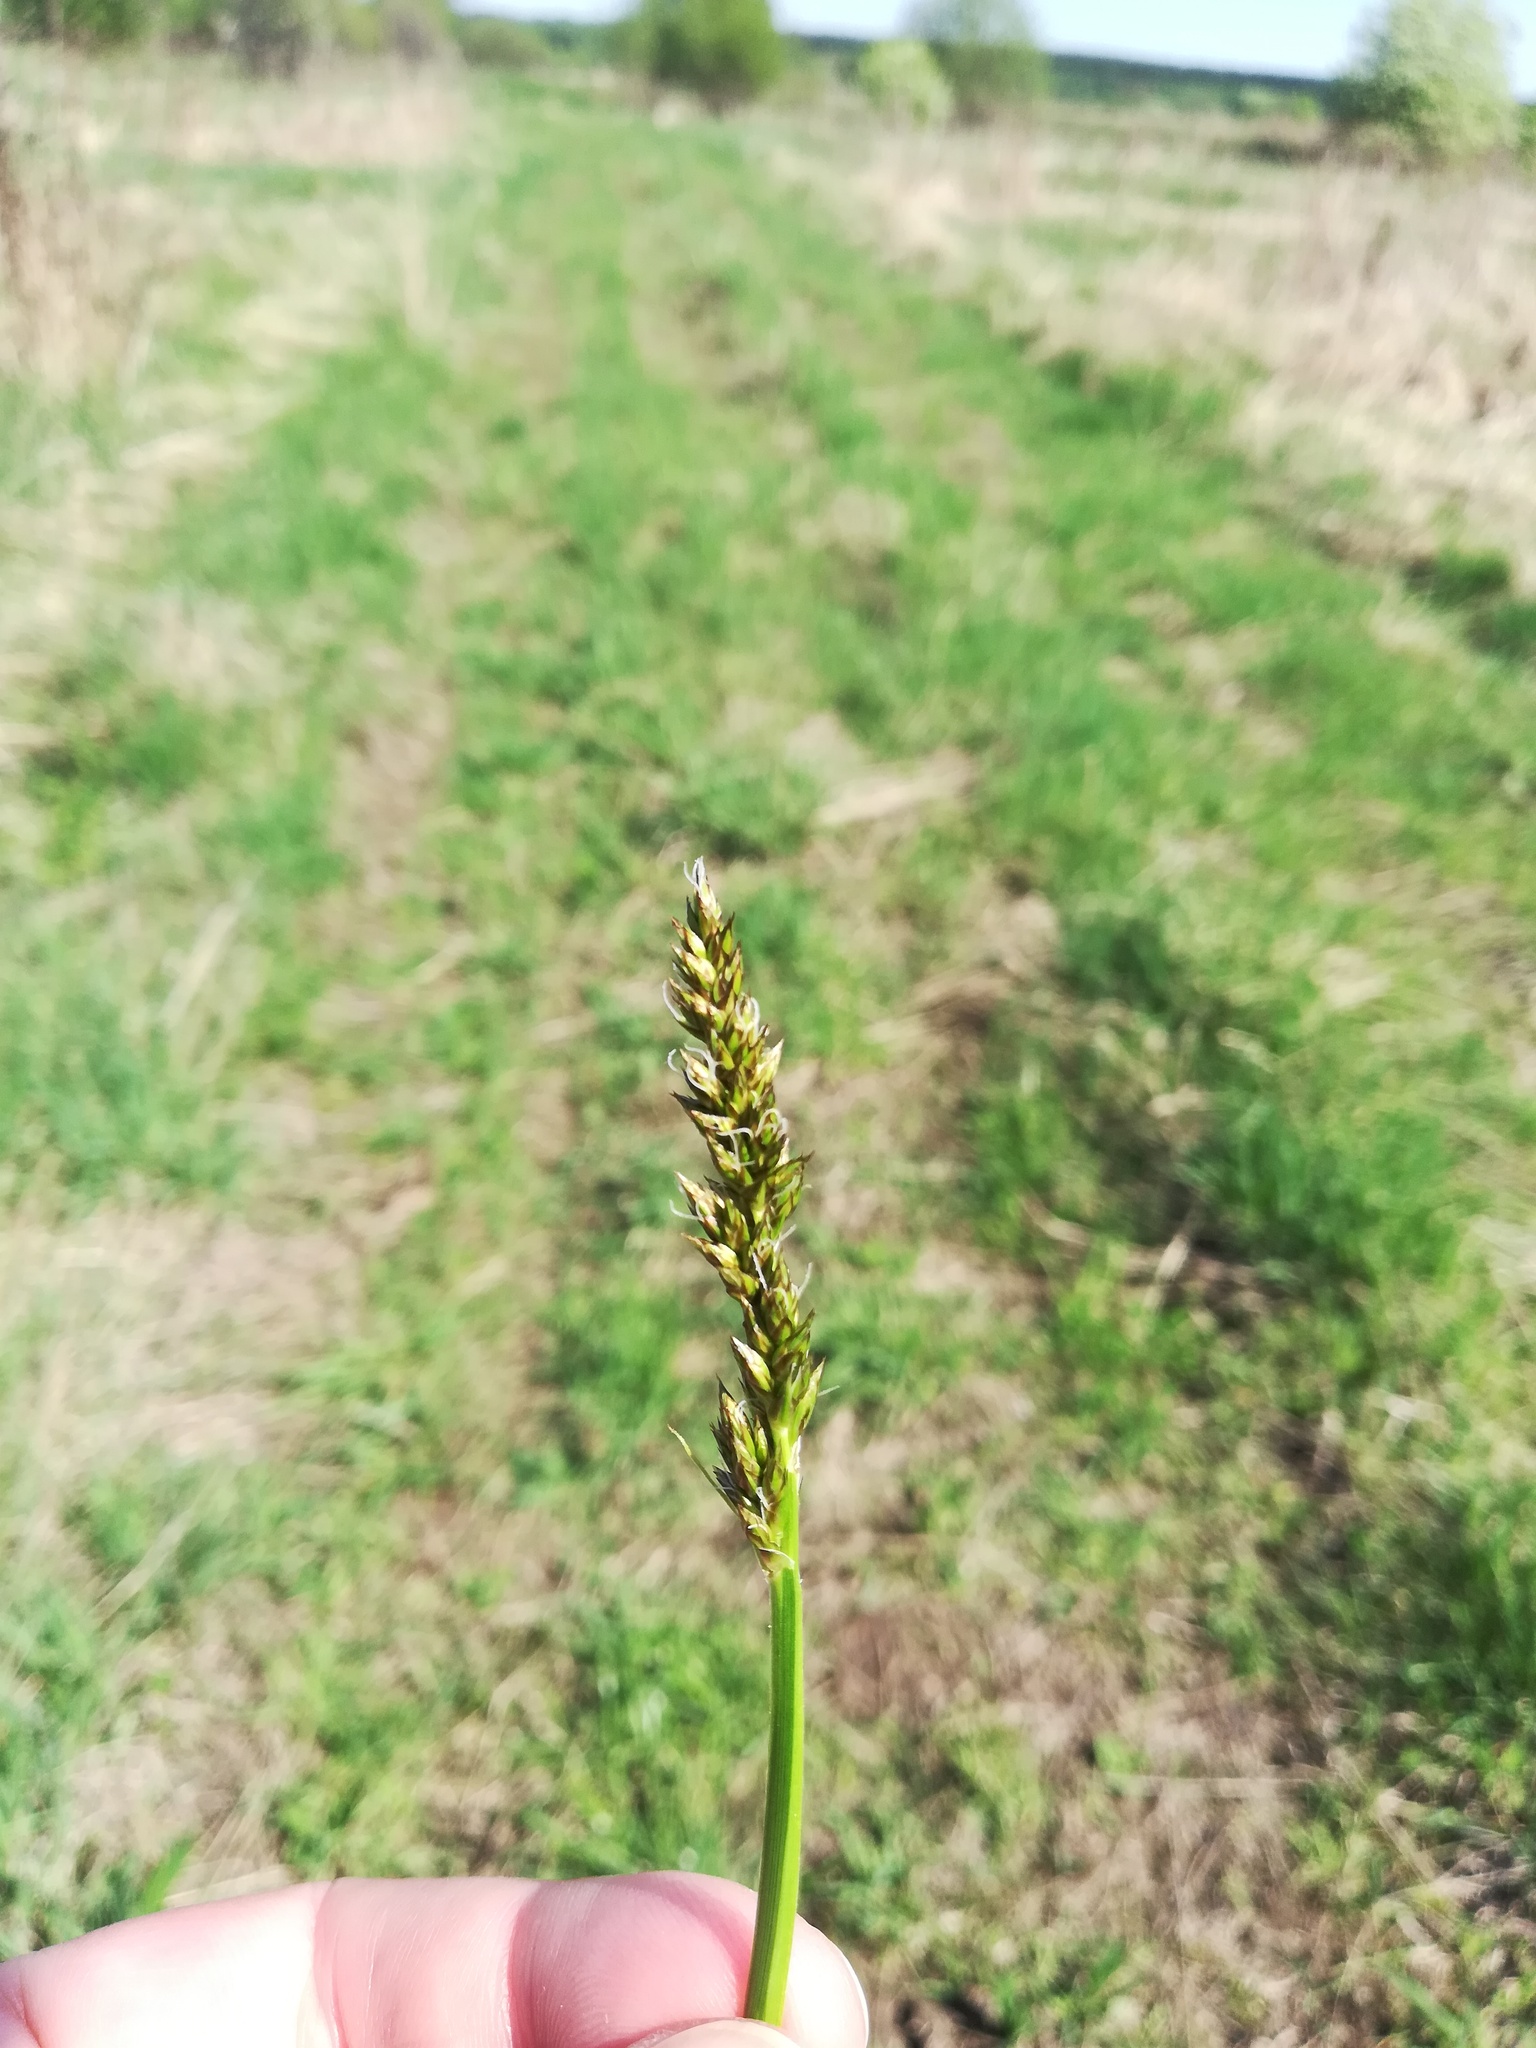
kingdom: Plantae
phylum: Tracheophyta
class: Liliopsida
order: Poales
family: Cyperaceae
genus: Carex
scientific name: Carex vulpina
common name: True fox-sedge
